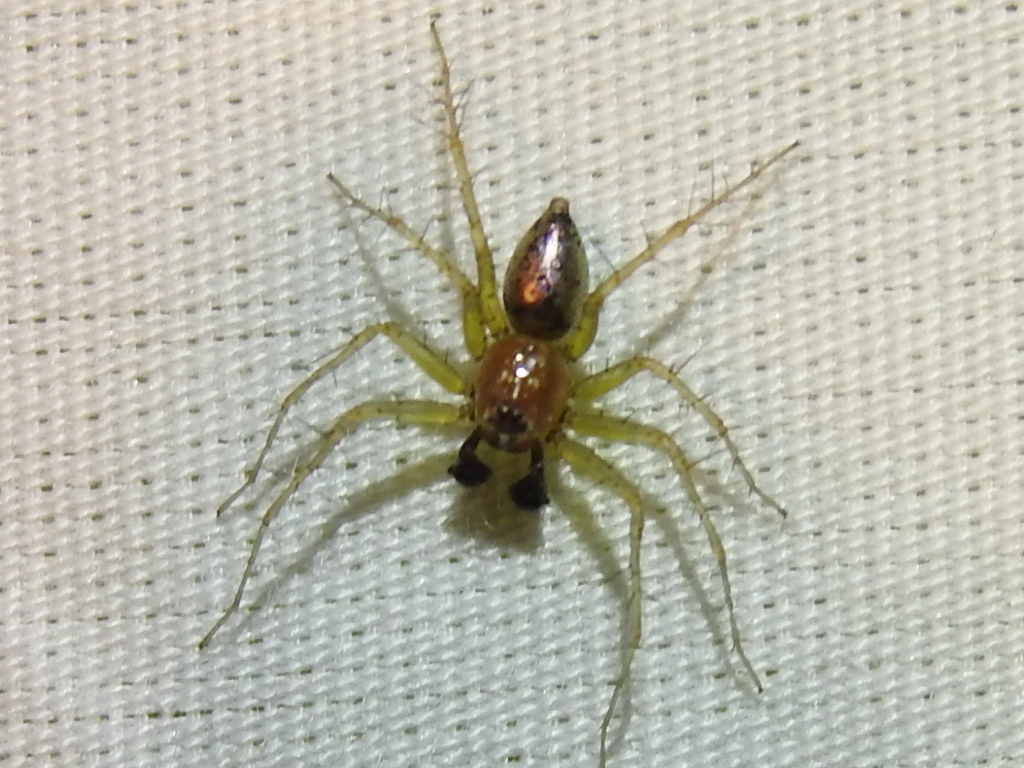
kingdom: Animalia
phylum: Arthropoda
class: Arachnida
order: Araneae
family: Oxyopidae
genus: Oxyopes
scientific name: Oxyopes salticus
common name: Lynx spiders
